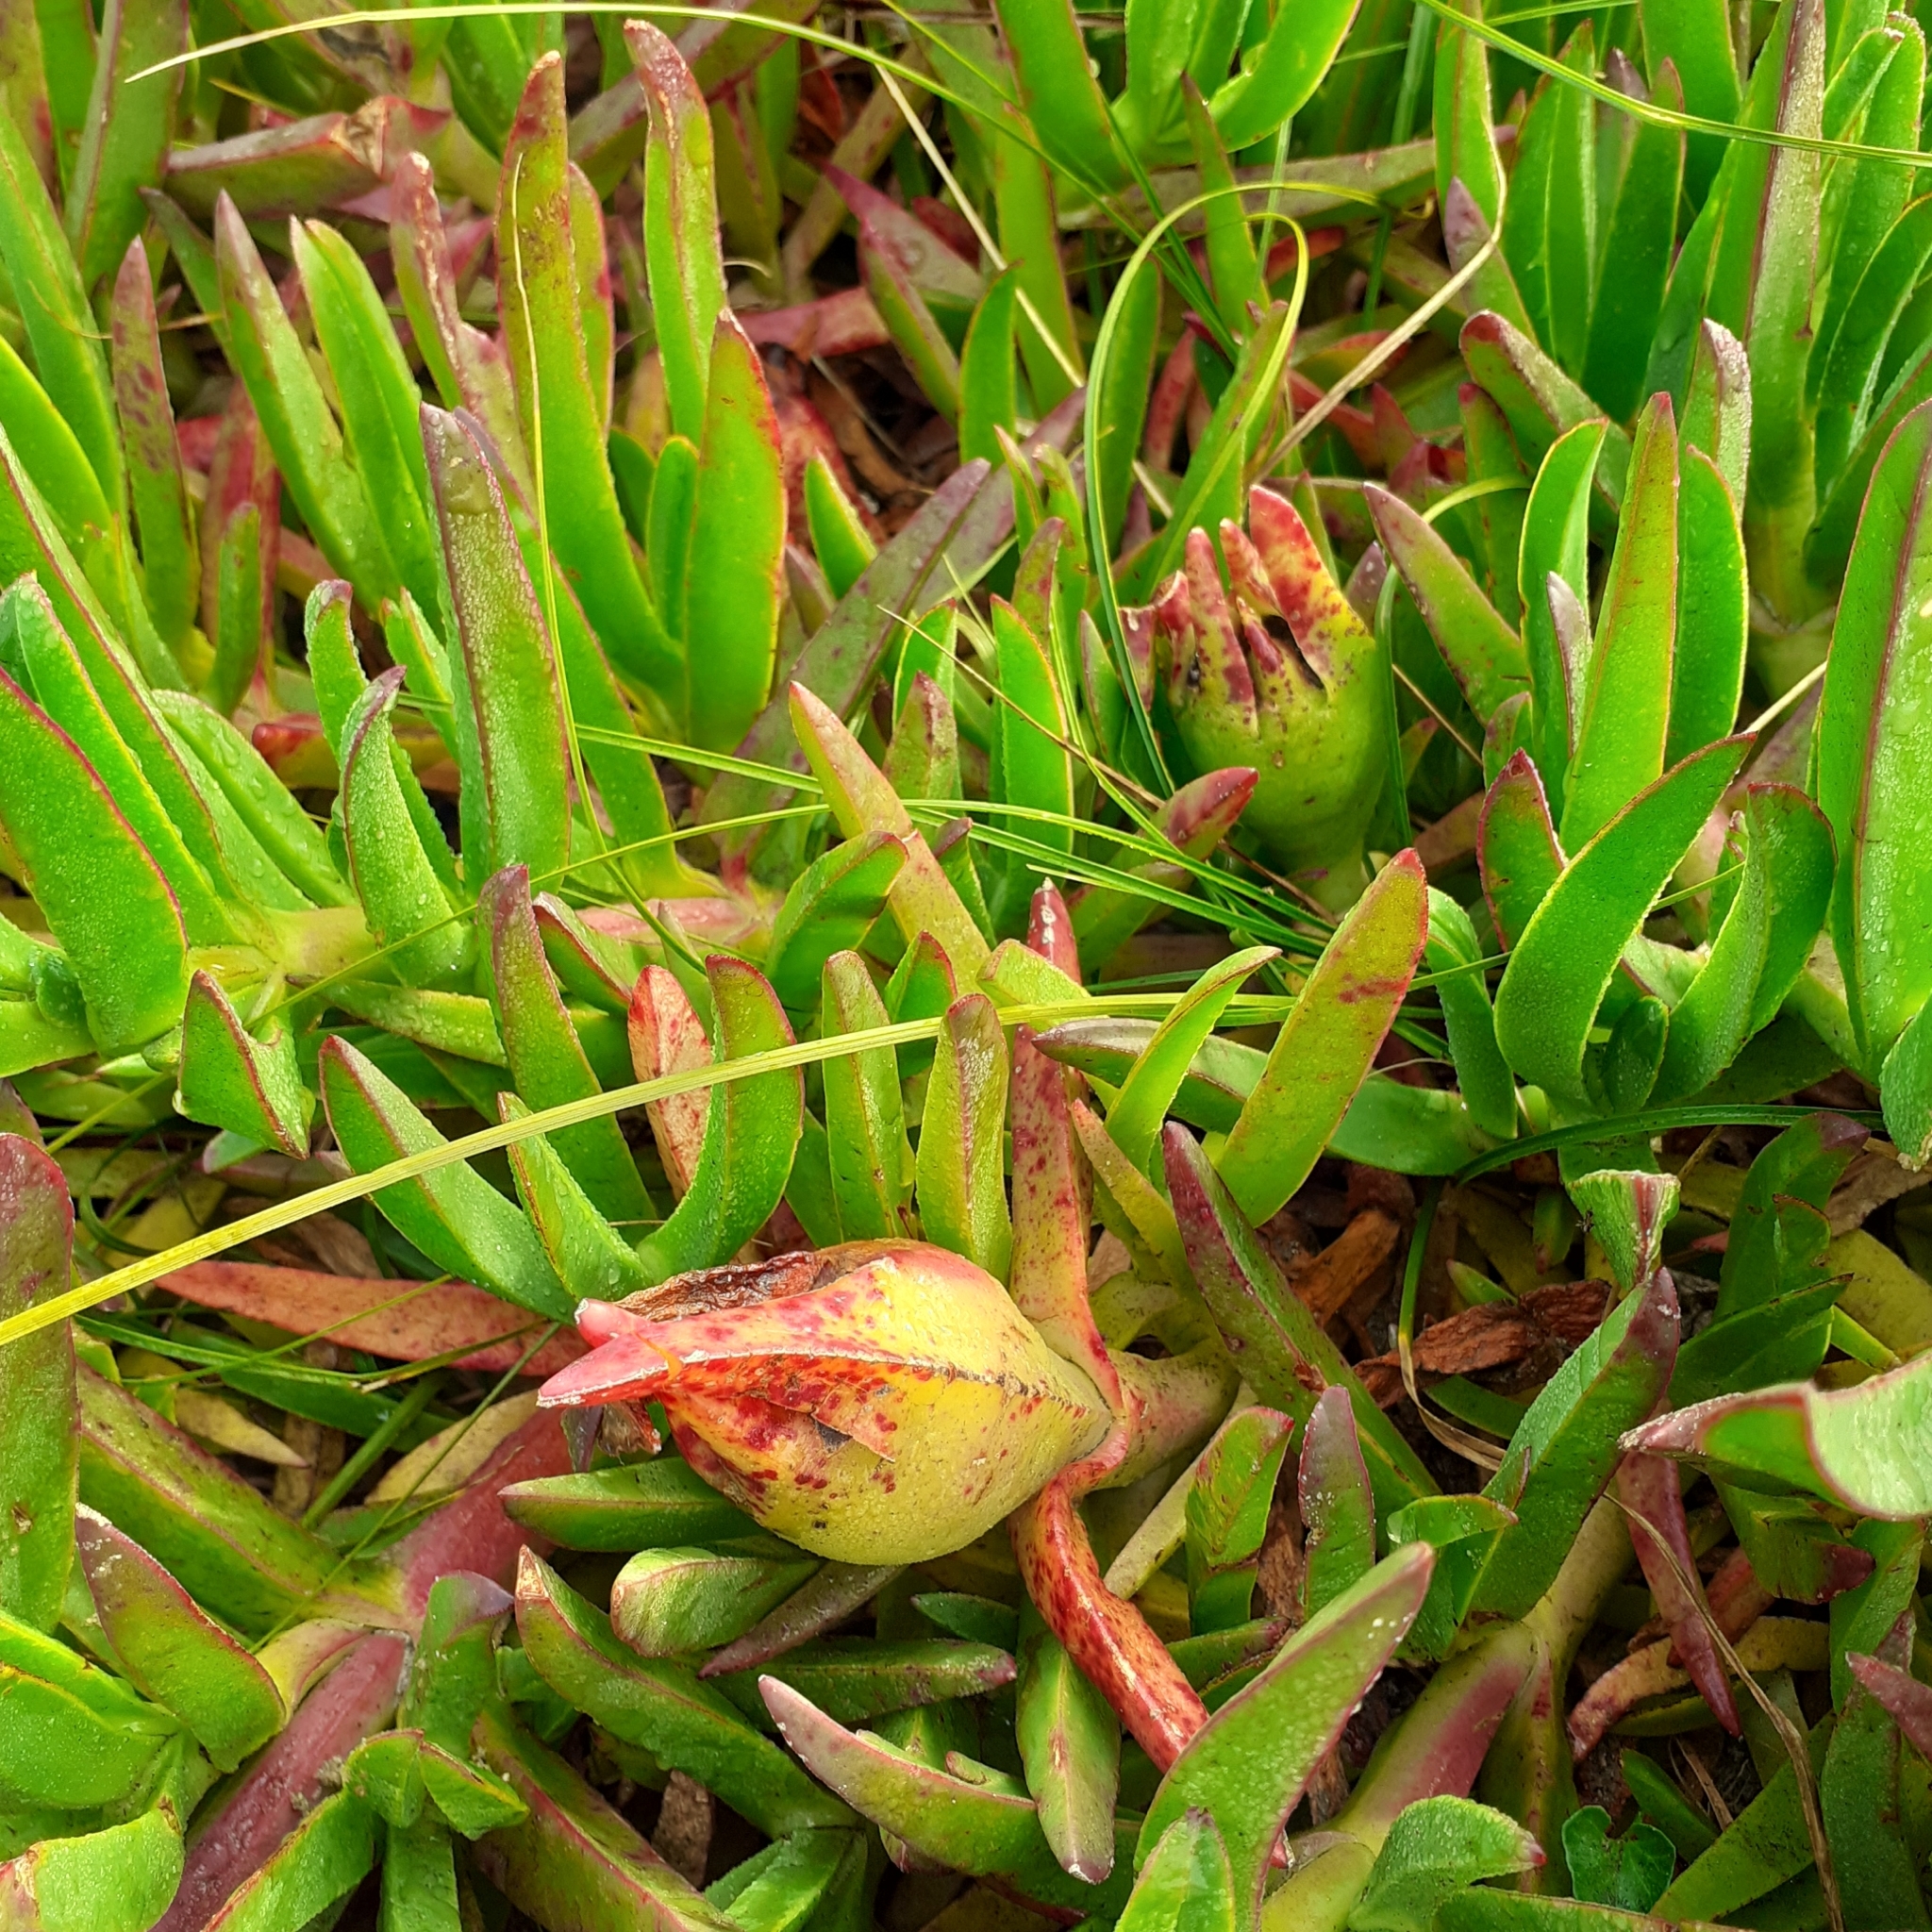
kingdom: Plantae
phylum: Tracheophyta
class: Magnoliopsida
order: Caryophyllales
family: Aizoaceae
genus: Carpobrotus
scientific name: Carpobrotus edulis
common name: Hottentot-fig
